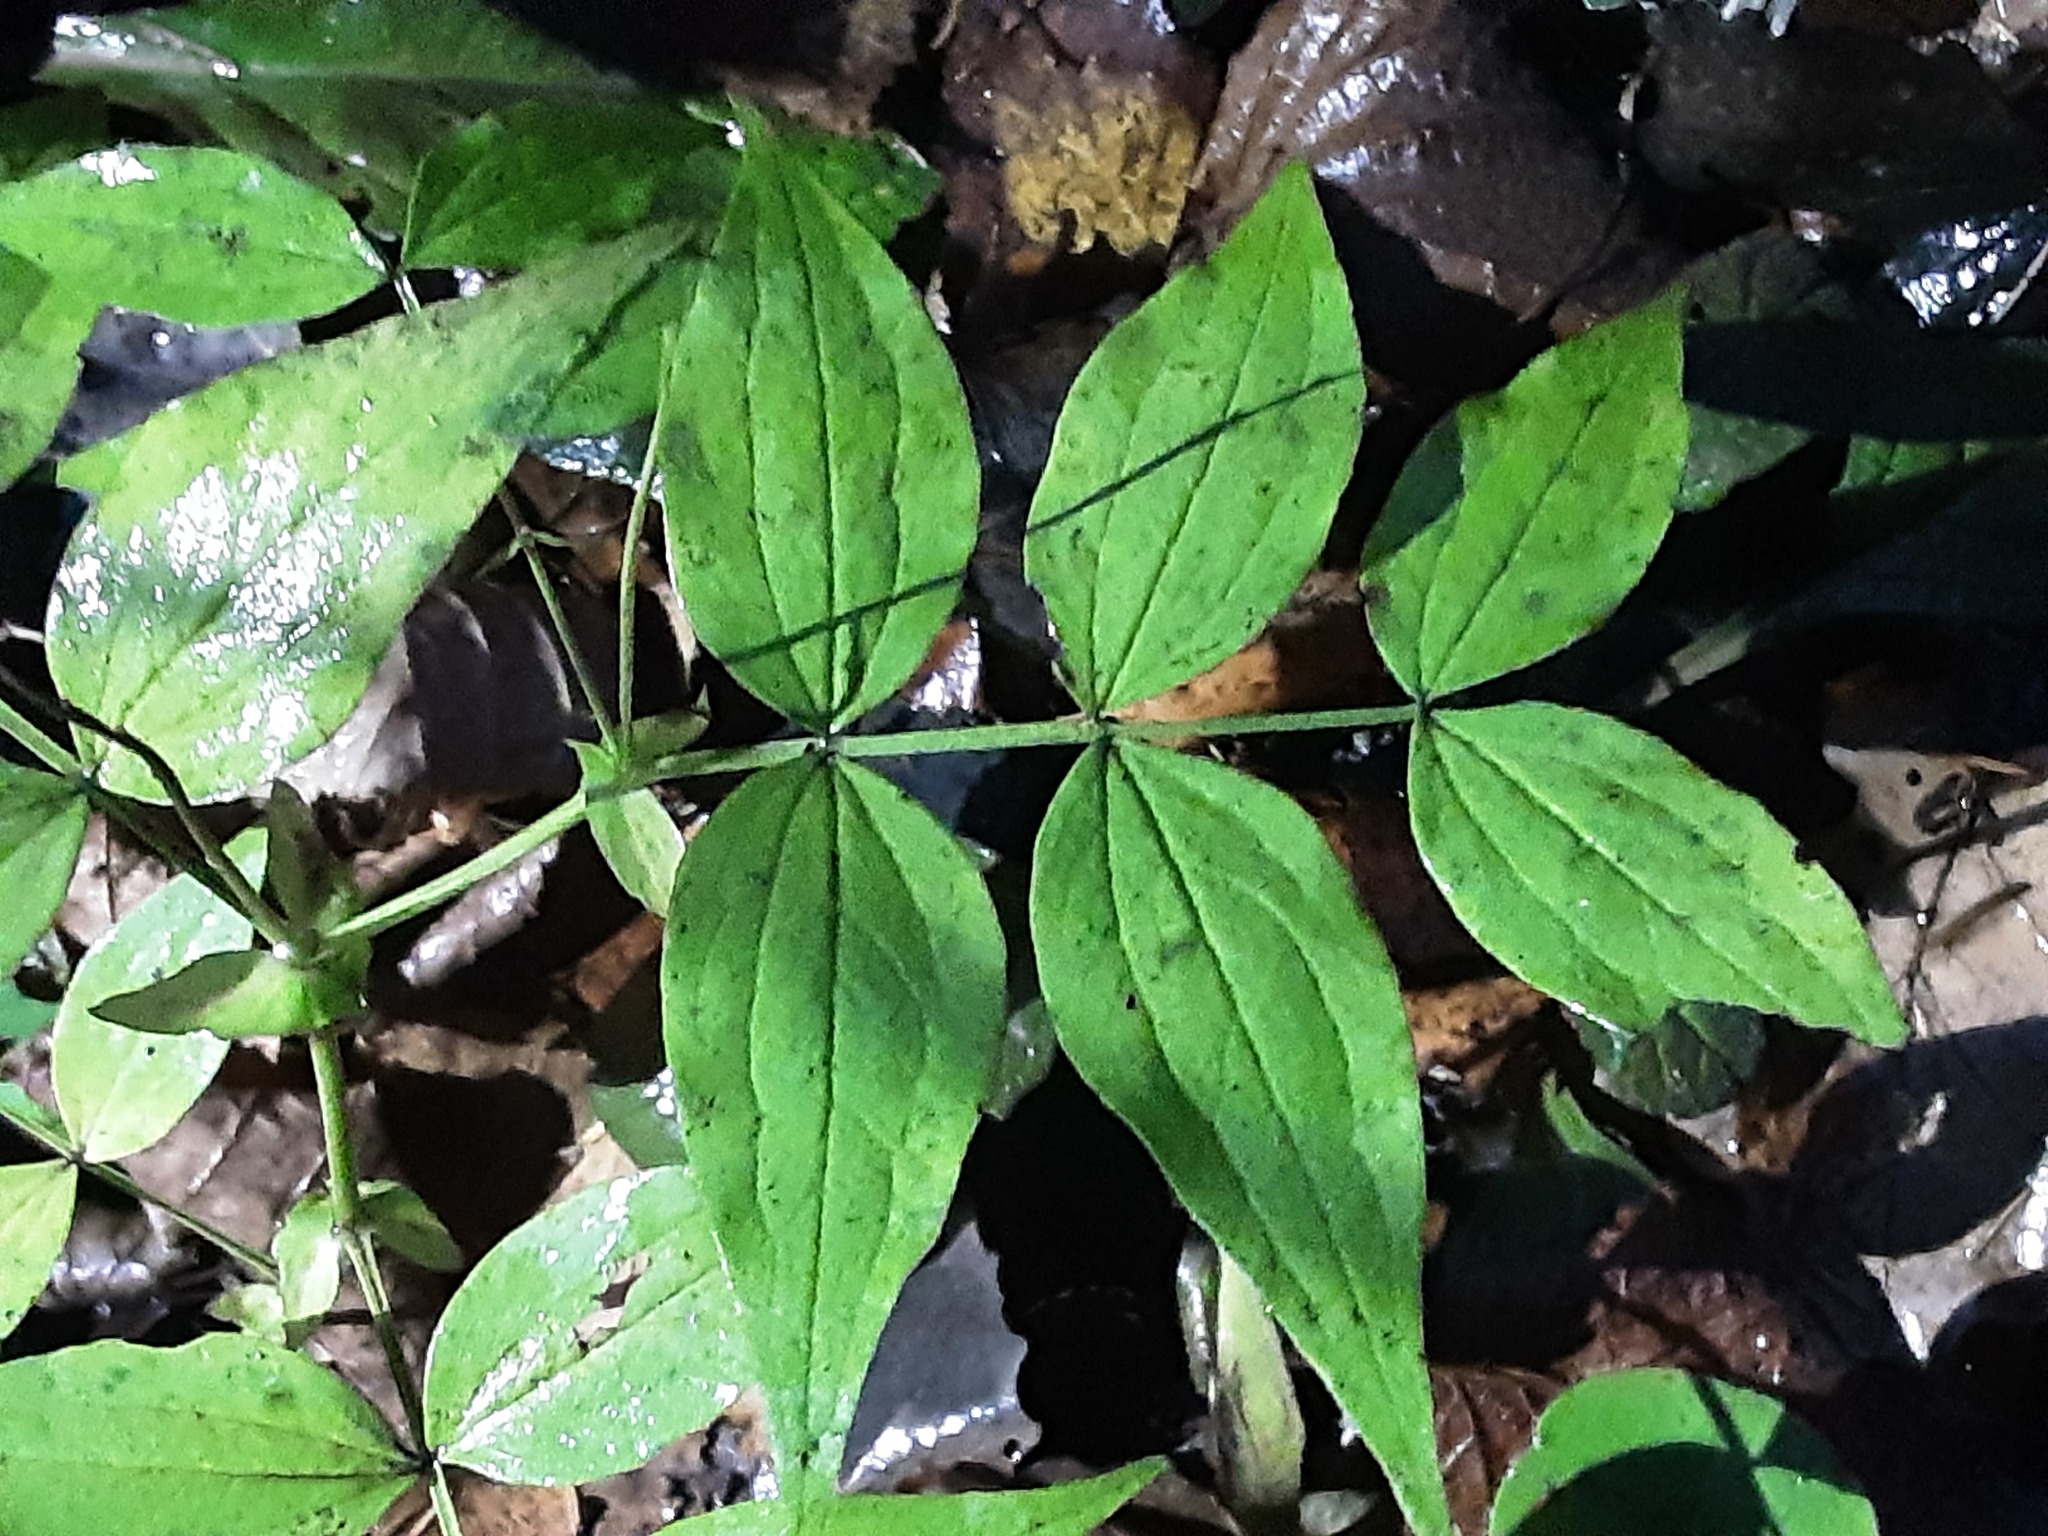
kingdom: Plantae
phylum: Tracheophyta
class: Magnoliopsida
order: Fabales
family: Fabaceae
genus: Lathyrus
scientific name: Lathyrus vernus
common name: Spring pea
